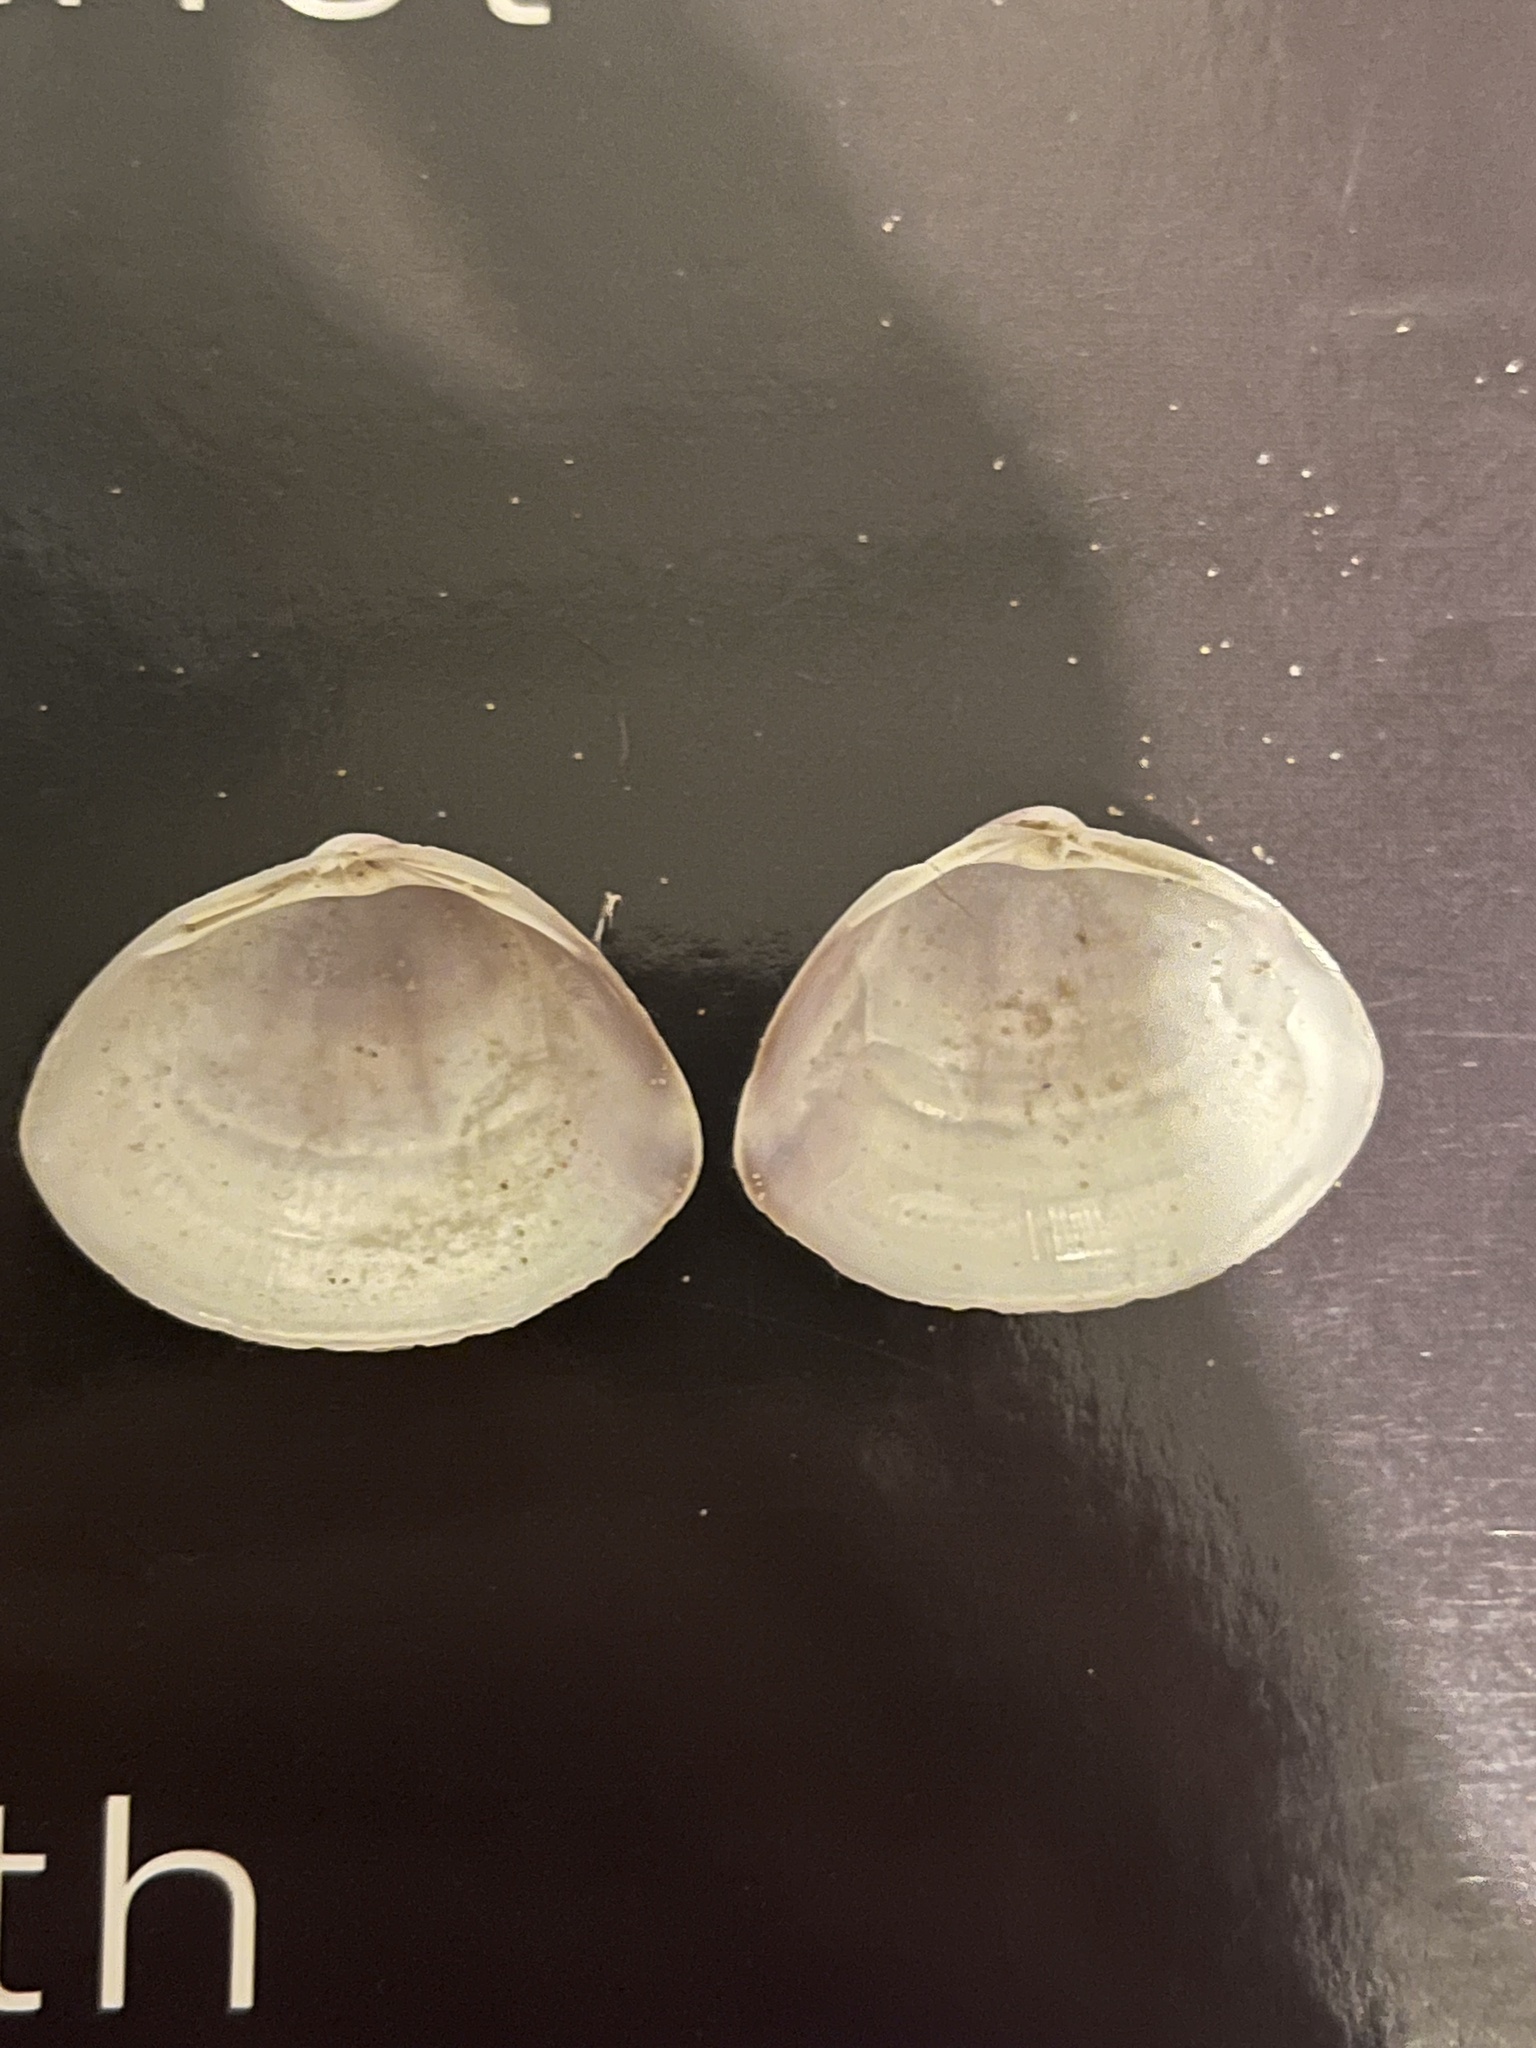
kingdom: Animalia
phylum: Mollusca
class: Bivalvia
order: Venerida
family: Mactridae
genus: Mactra
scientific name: Mactra stultorum
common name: Rayed trough shell
